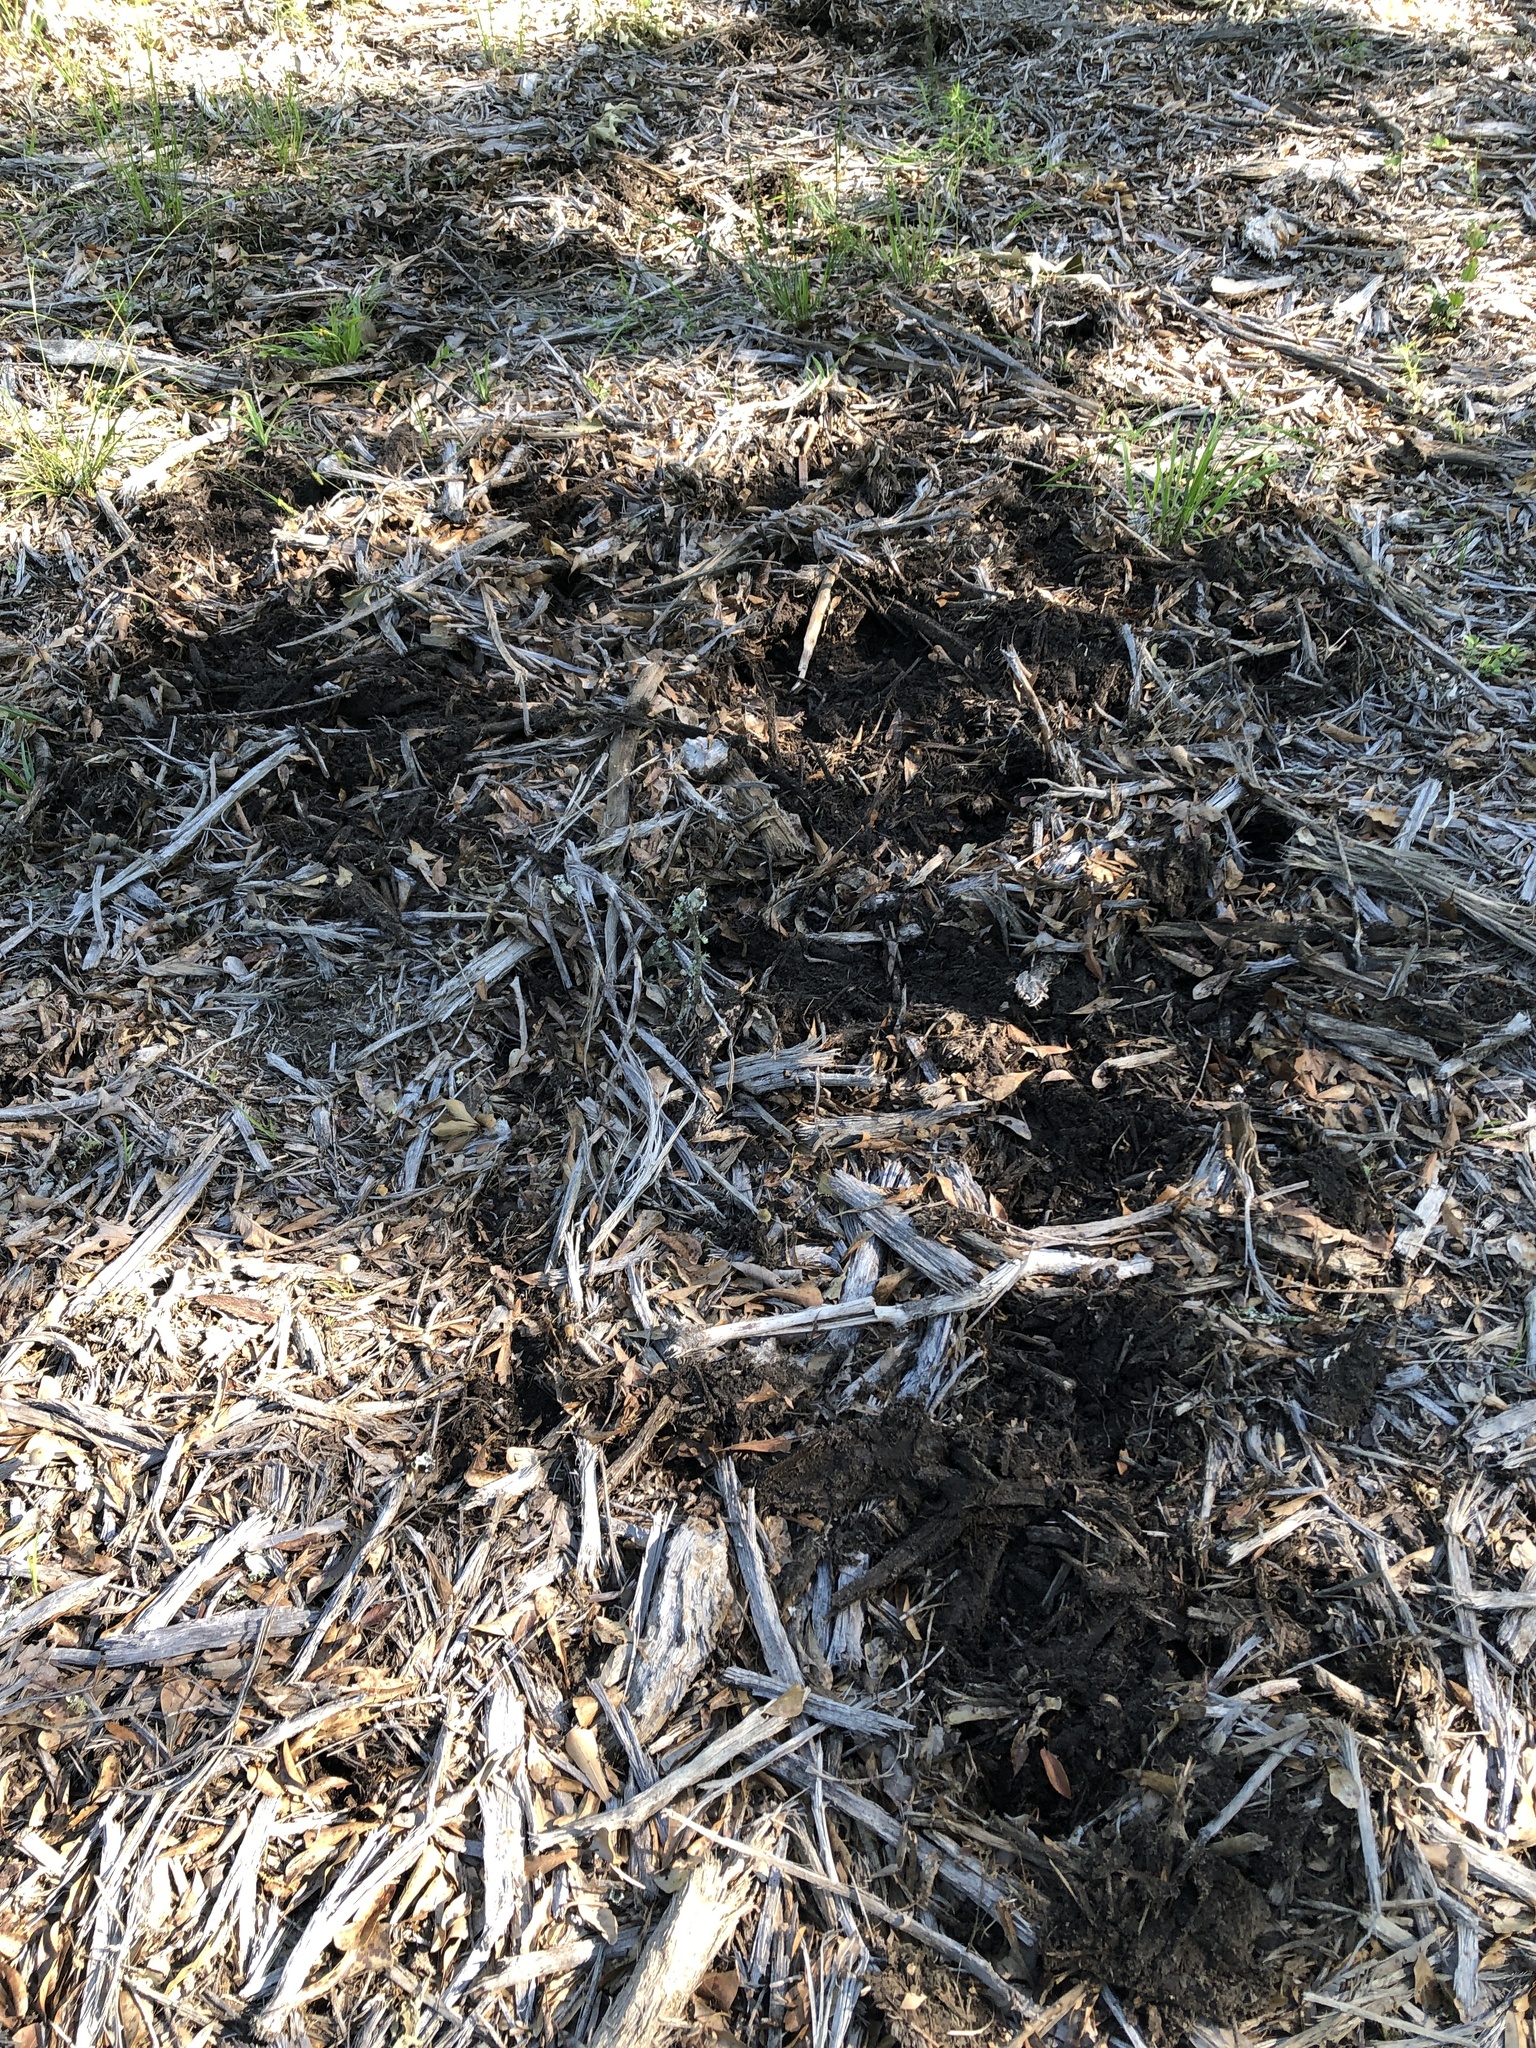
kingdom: Animalia
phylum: Chordata
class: Mammalia
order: Artiodactyla
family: Suidae
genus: Sus
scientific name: Sus scrofa
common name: Wild boar
